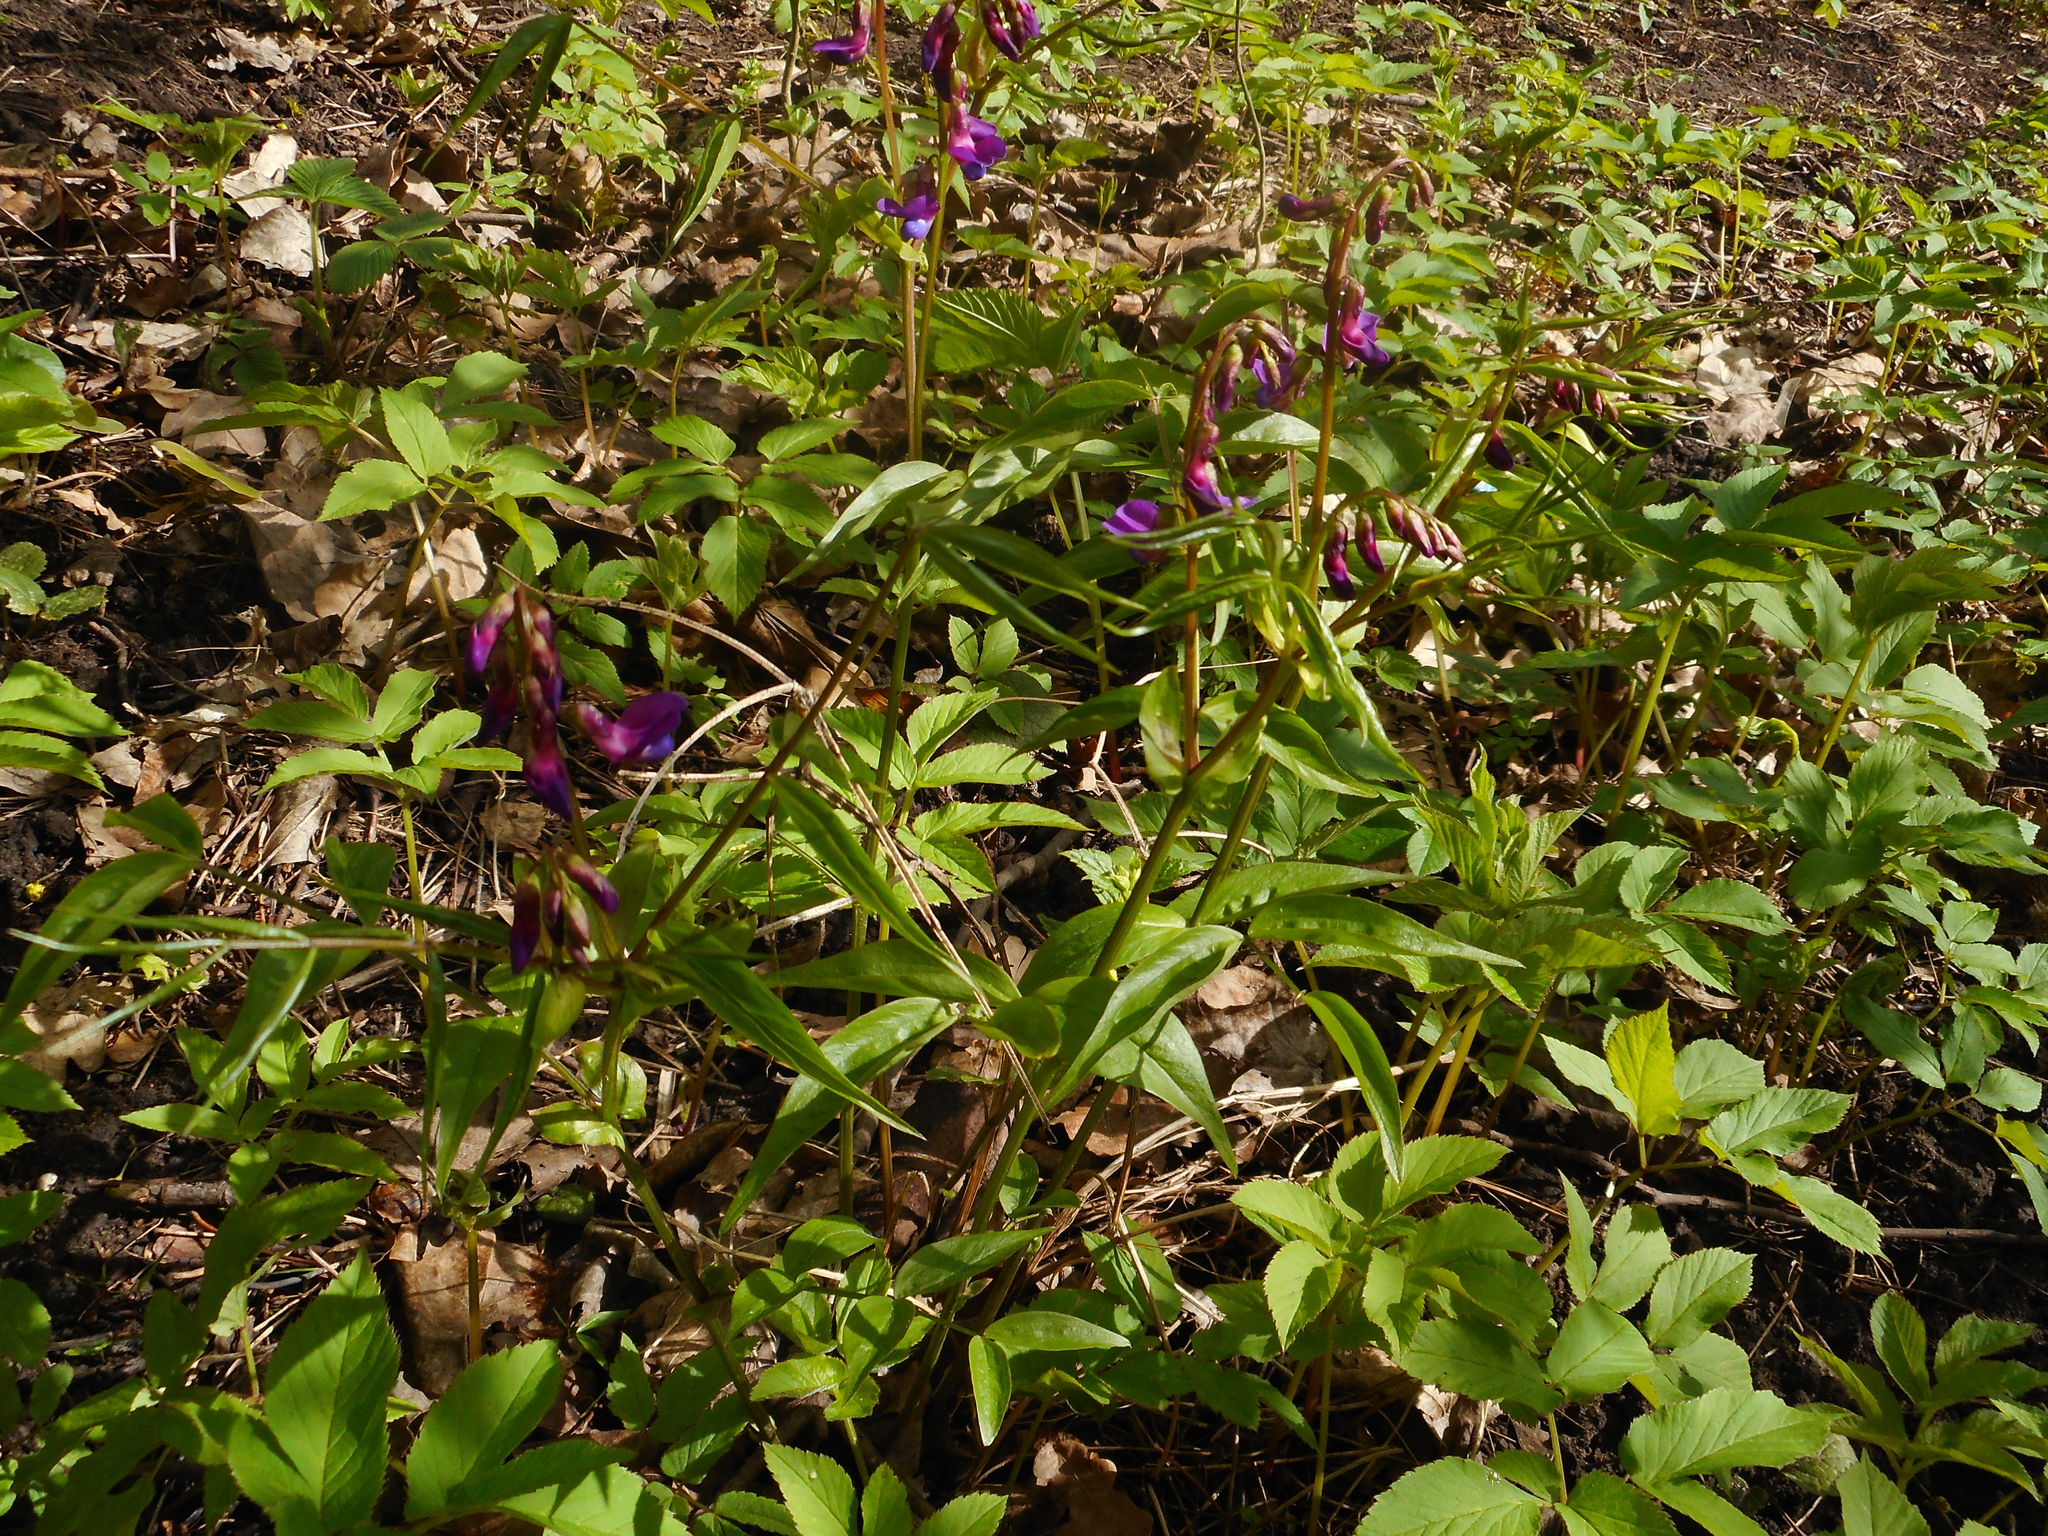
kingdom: Plantae
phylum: Tracheophyta
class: Magnoliopsida
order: Fabales
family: Fabaceae
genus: Lathyrus
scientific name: Lathyrus vernus
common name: Spring pea
